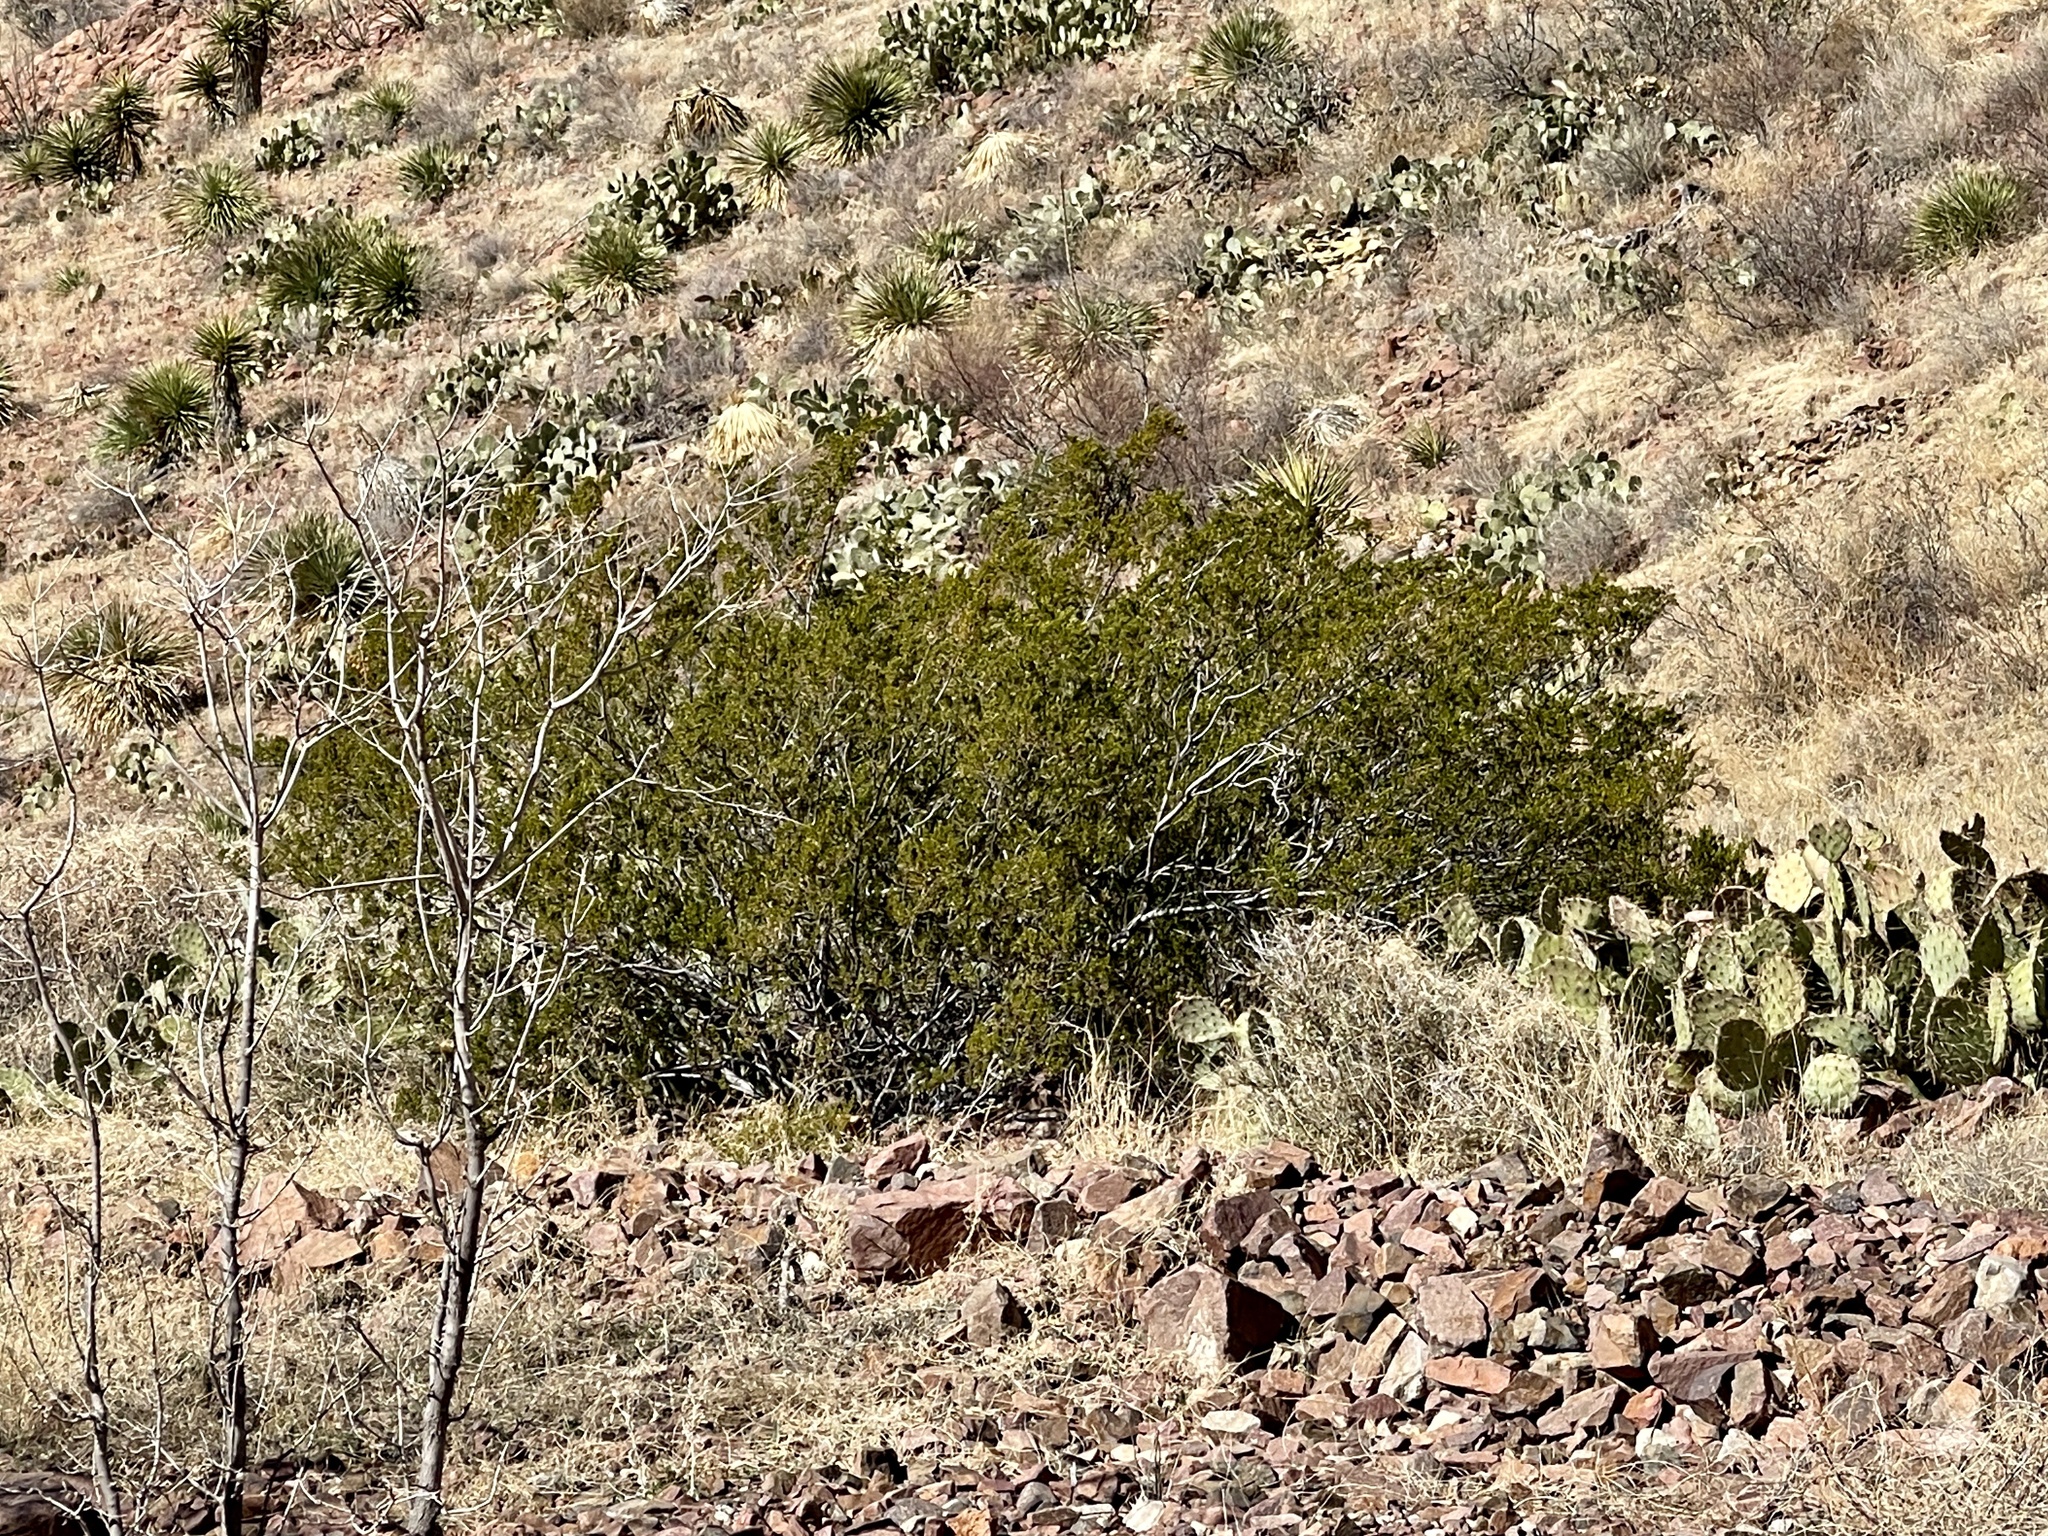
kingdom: Plantae
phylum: Tracheophyta
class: Magnoliopsida
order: Zygophyllales
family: Zygophyllaceae
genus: Larrea
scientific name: Larrea tridentata
